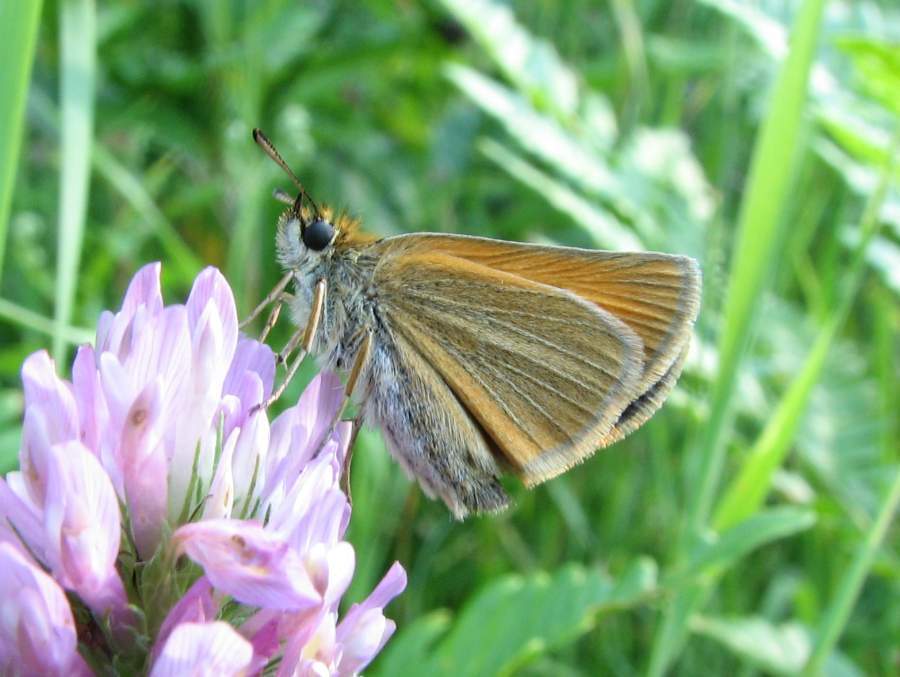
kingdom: Animalia
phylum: Arthropoda
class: Insecta
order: Lepidoptera
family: Hesperiidae
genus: Thymelicus
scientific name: Thymelicus lineola
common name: Essex skipper
